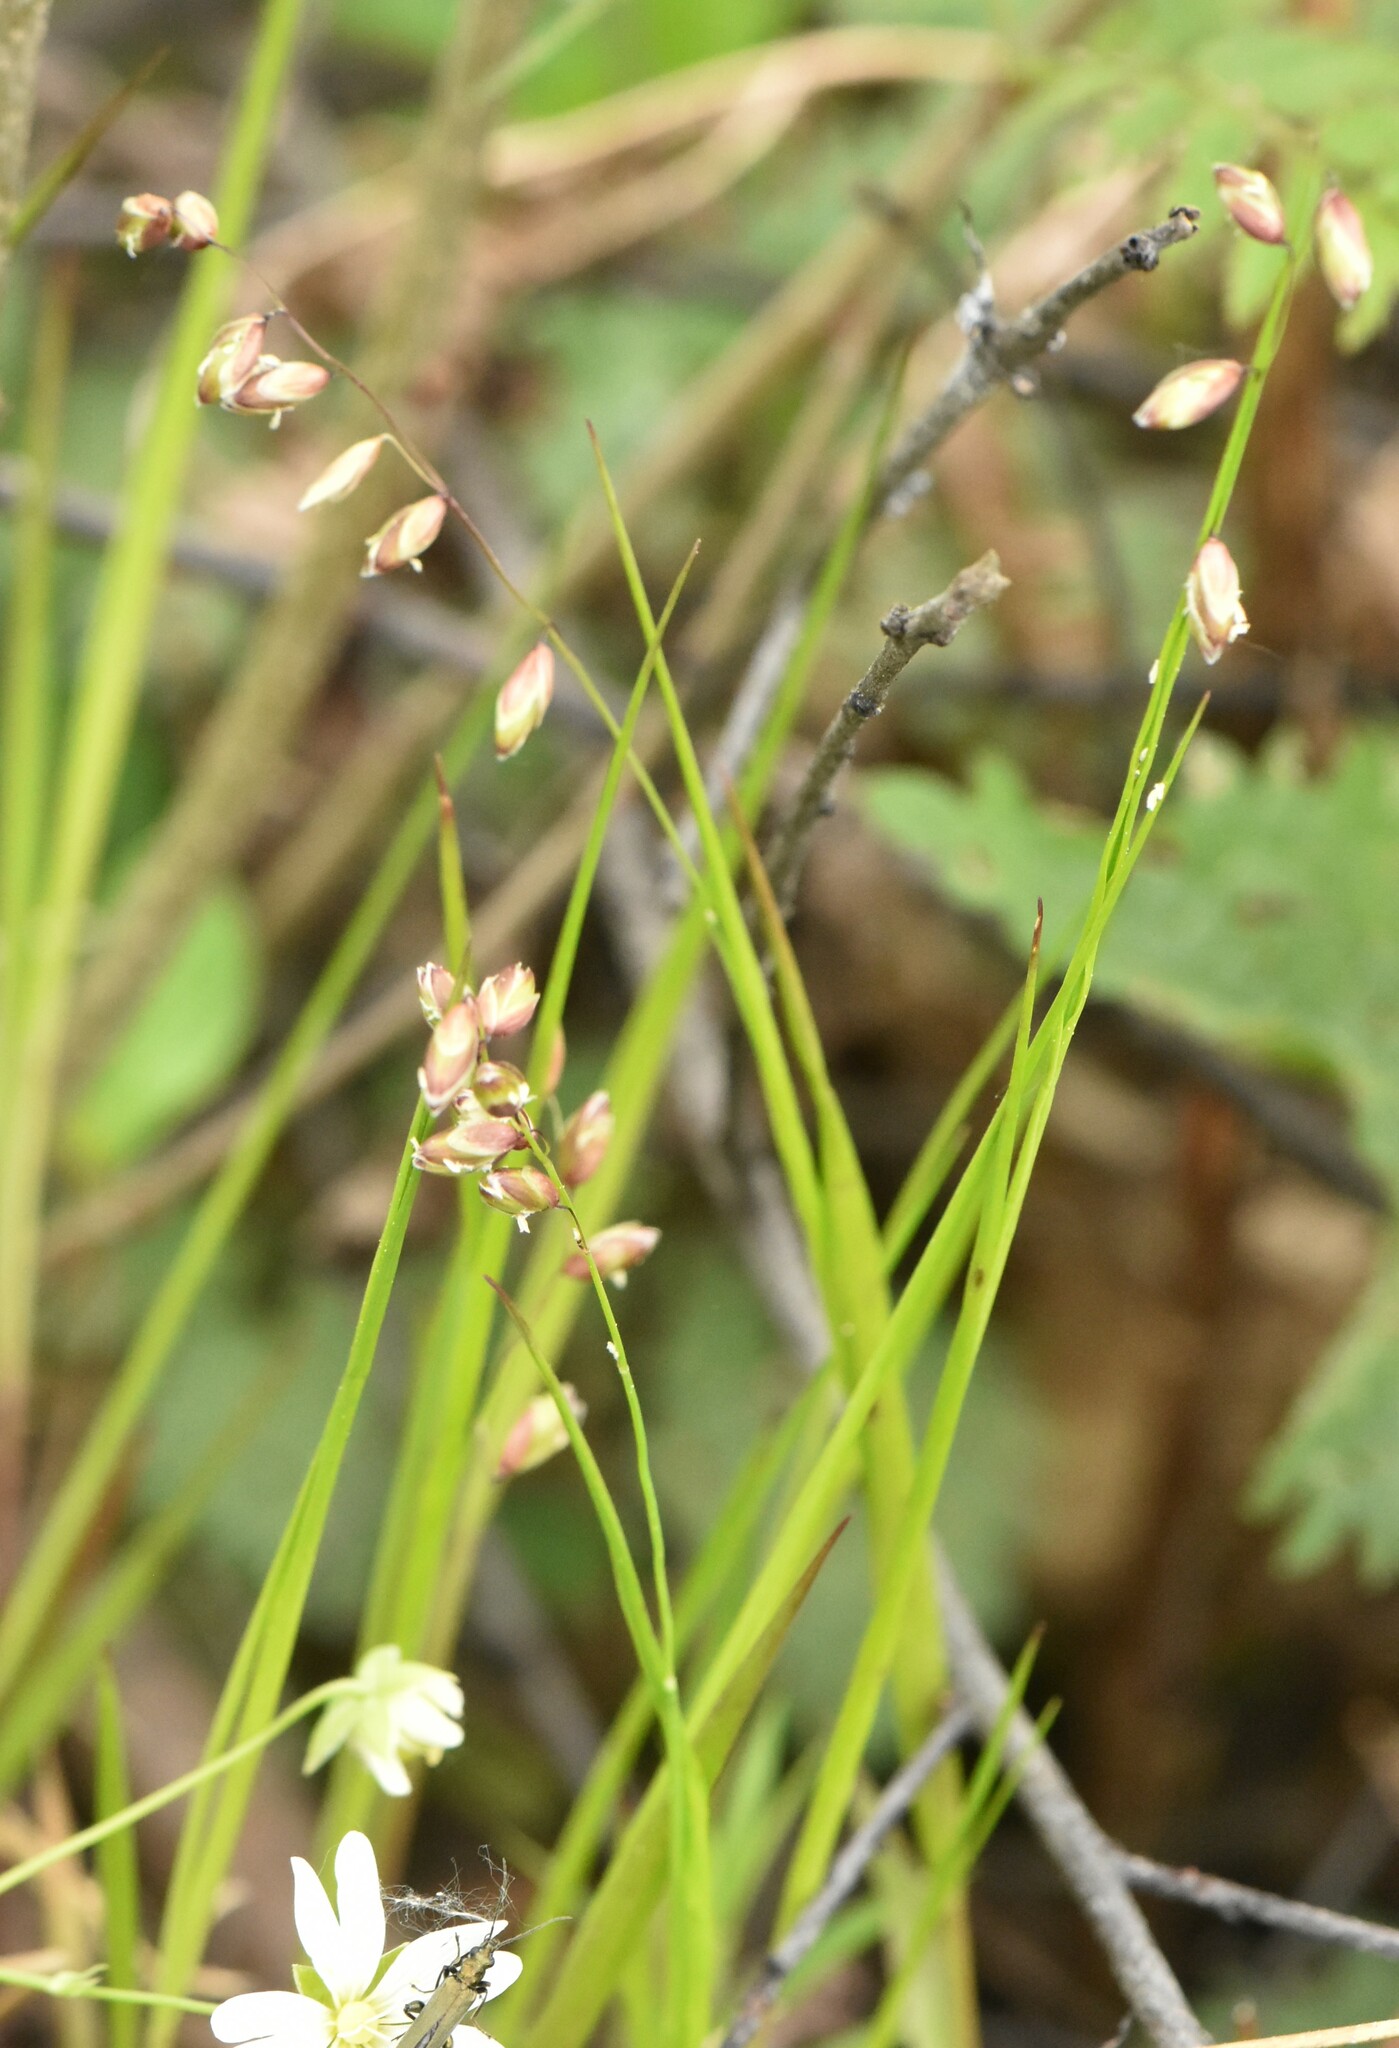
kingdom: Plantae
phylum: Tracheophyta
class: Liliopsida
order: Poales
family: Poaceae
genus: Melica
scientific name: Melica nutans
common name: Mountain melick
